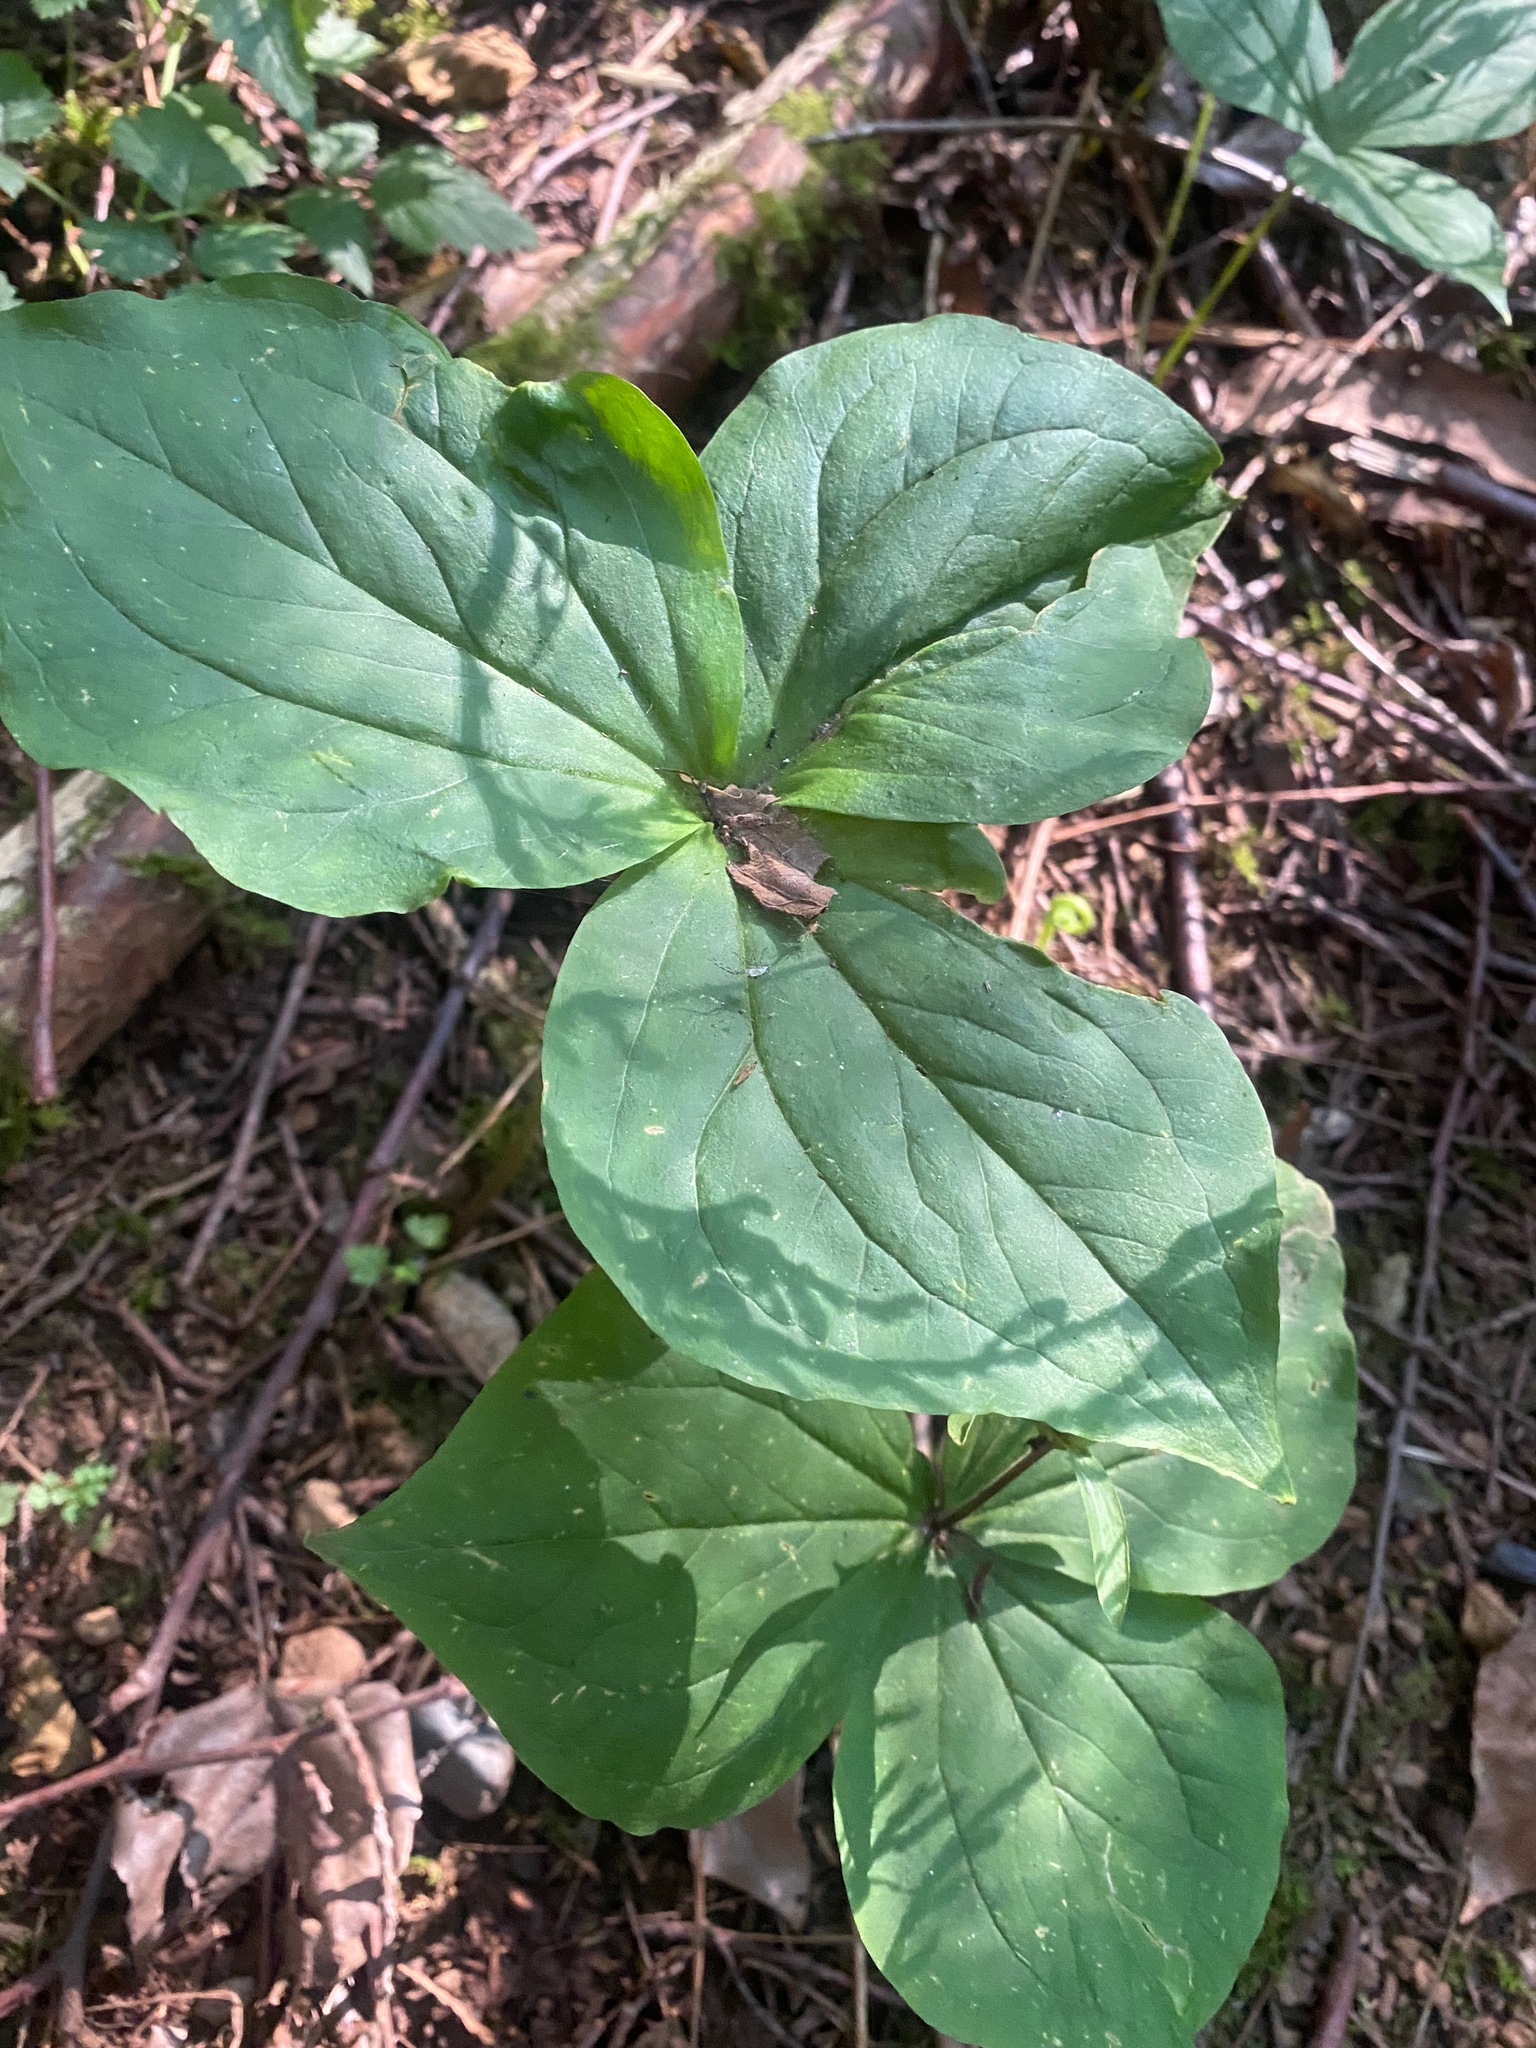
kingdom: Plantae
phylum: Tracheophyta
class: Liliopsida
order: Liliales
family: Melanthiaceae
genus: Trillium
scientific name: Trillium ovatum
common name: Pacific trillium
